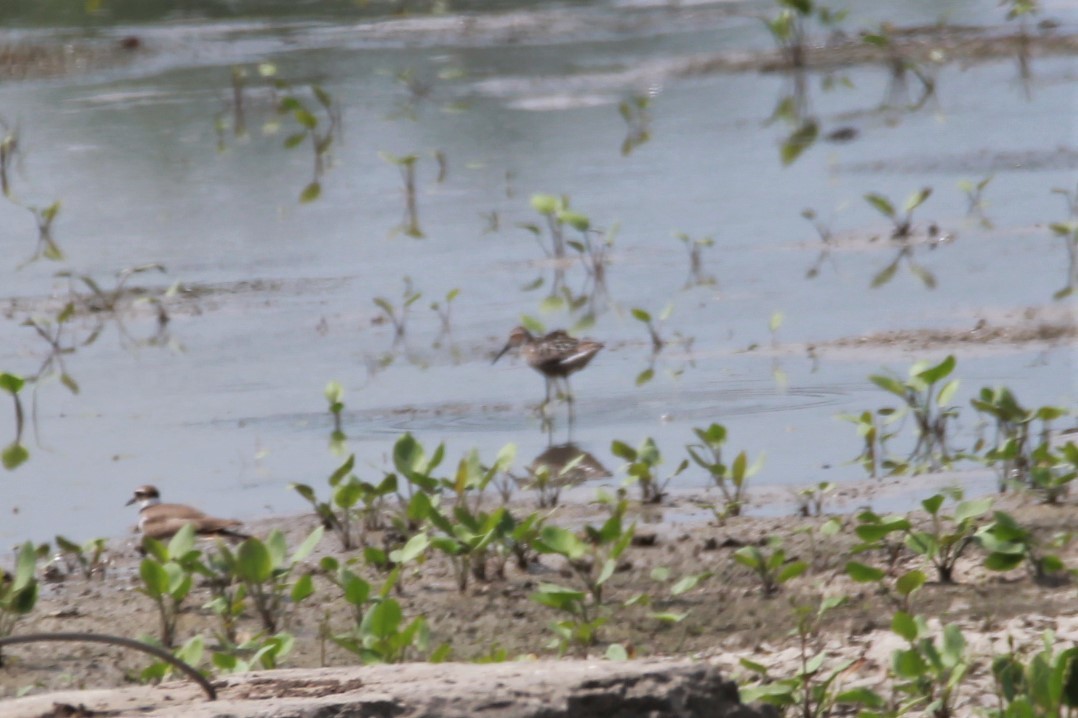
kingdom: Animalia
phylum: Chordata
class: Aves
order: Charadriiformes
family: Scolopacidae
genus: Calidris
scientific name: Calidris himantopus
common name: Stilt sandpiper
